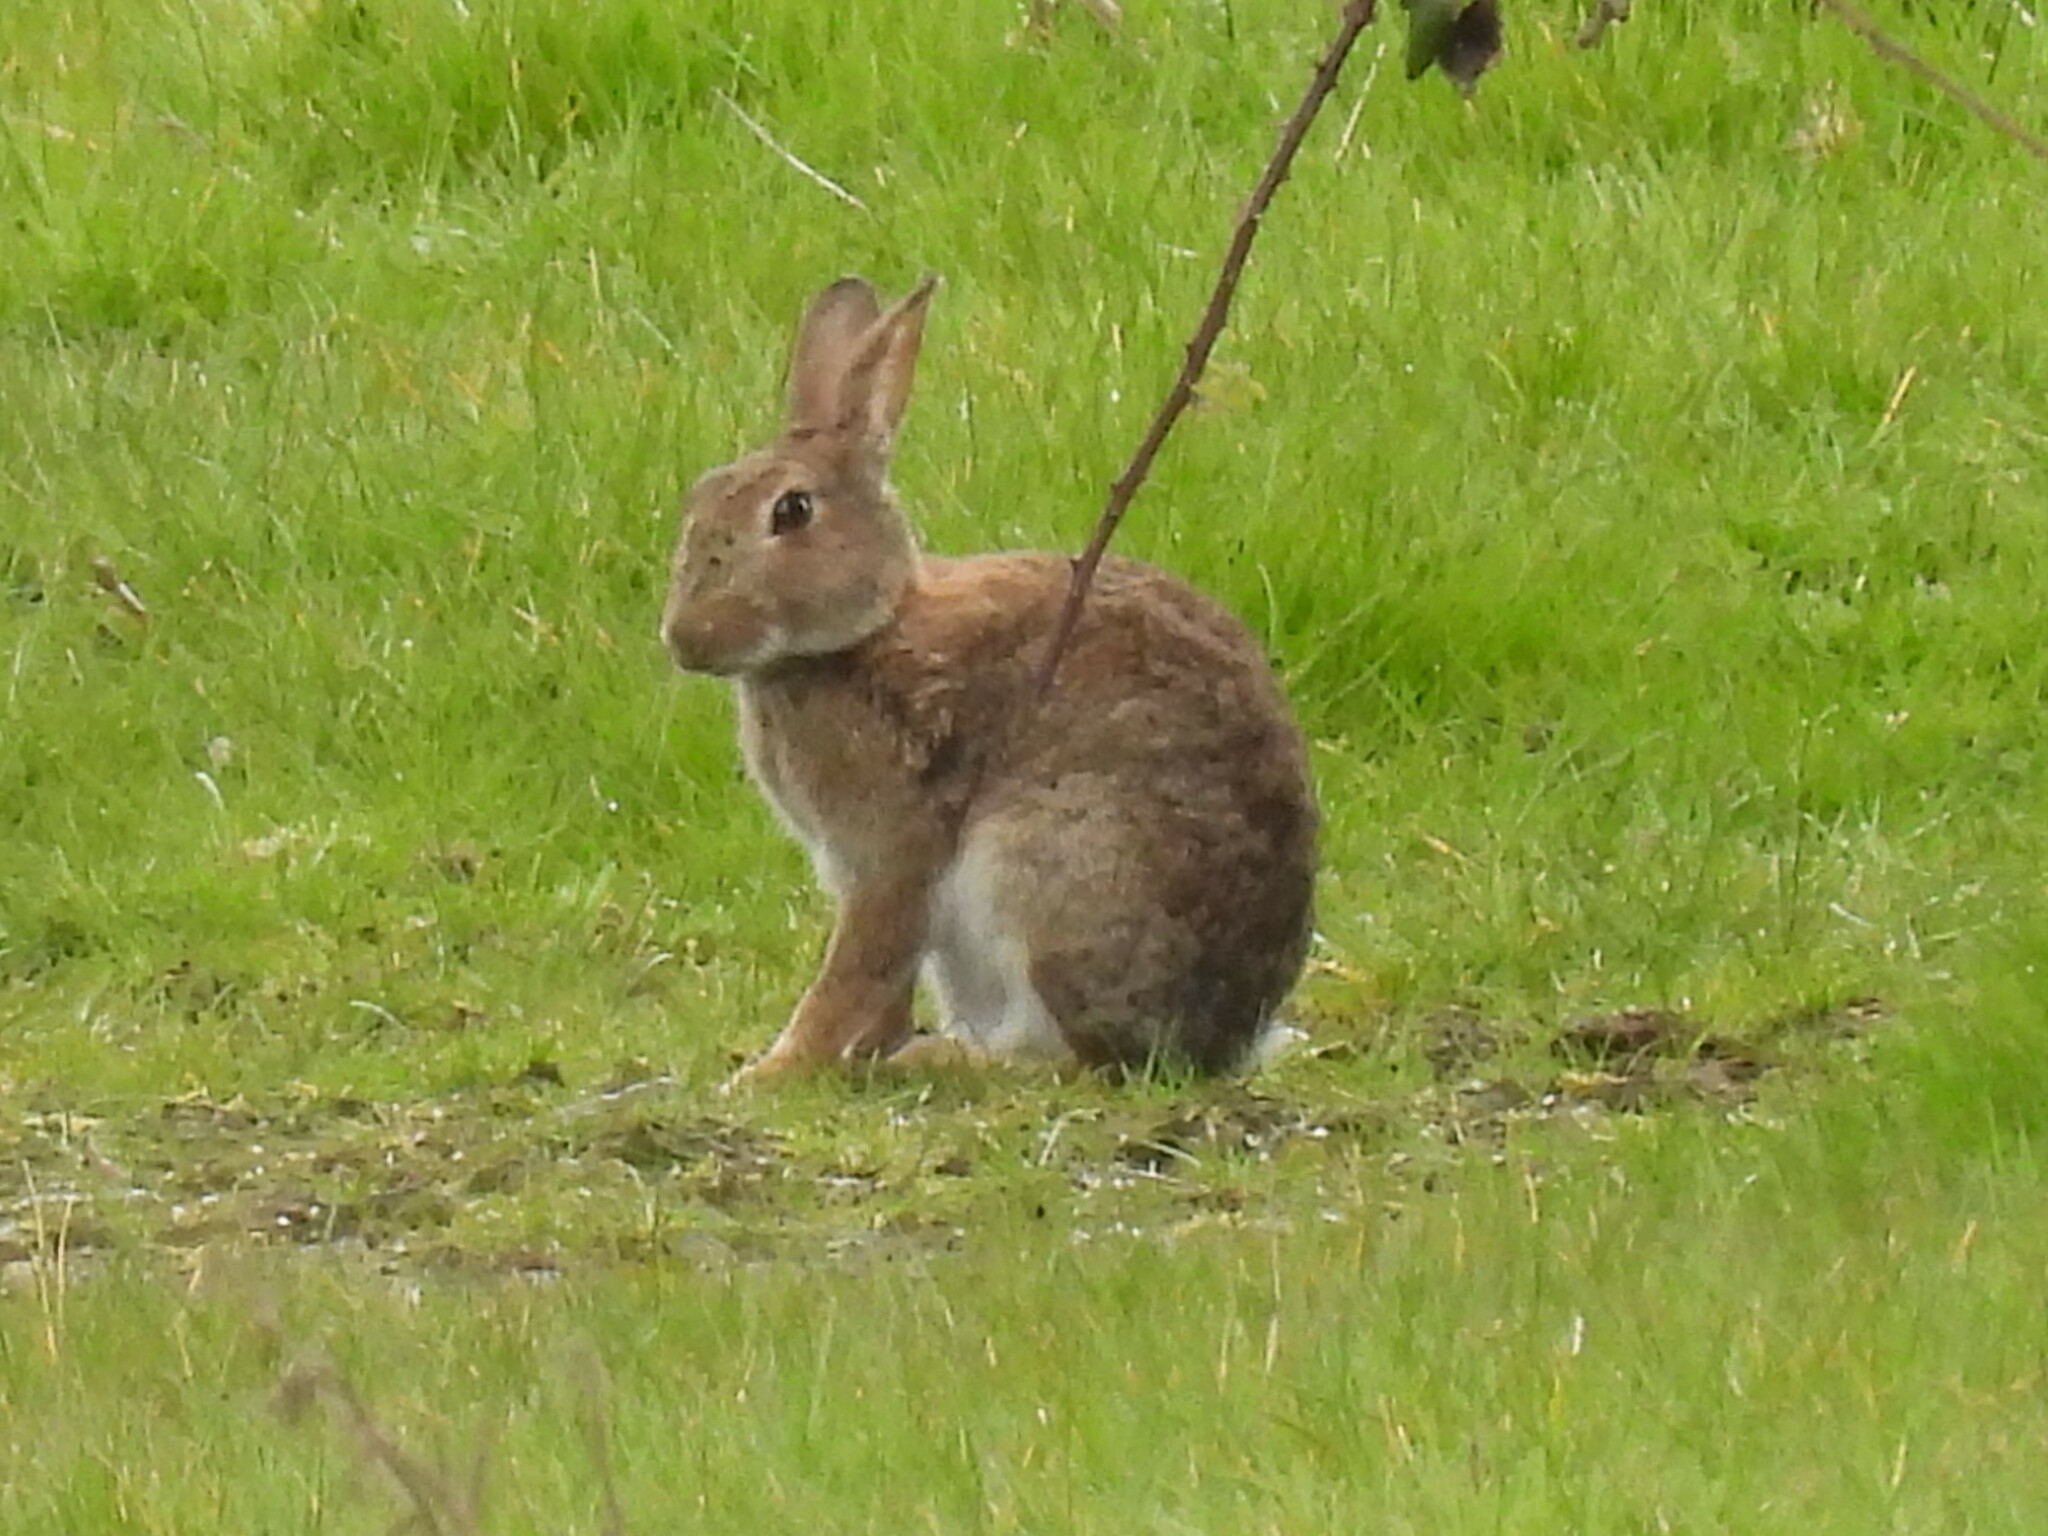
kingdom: Animalia
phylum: Chordata
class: Mammalia
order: Lagomorpha
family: Leporidae
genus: Oryctolagus
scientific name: Oryctolagus cuniculus
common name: European rabbit
